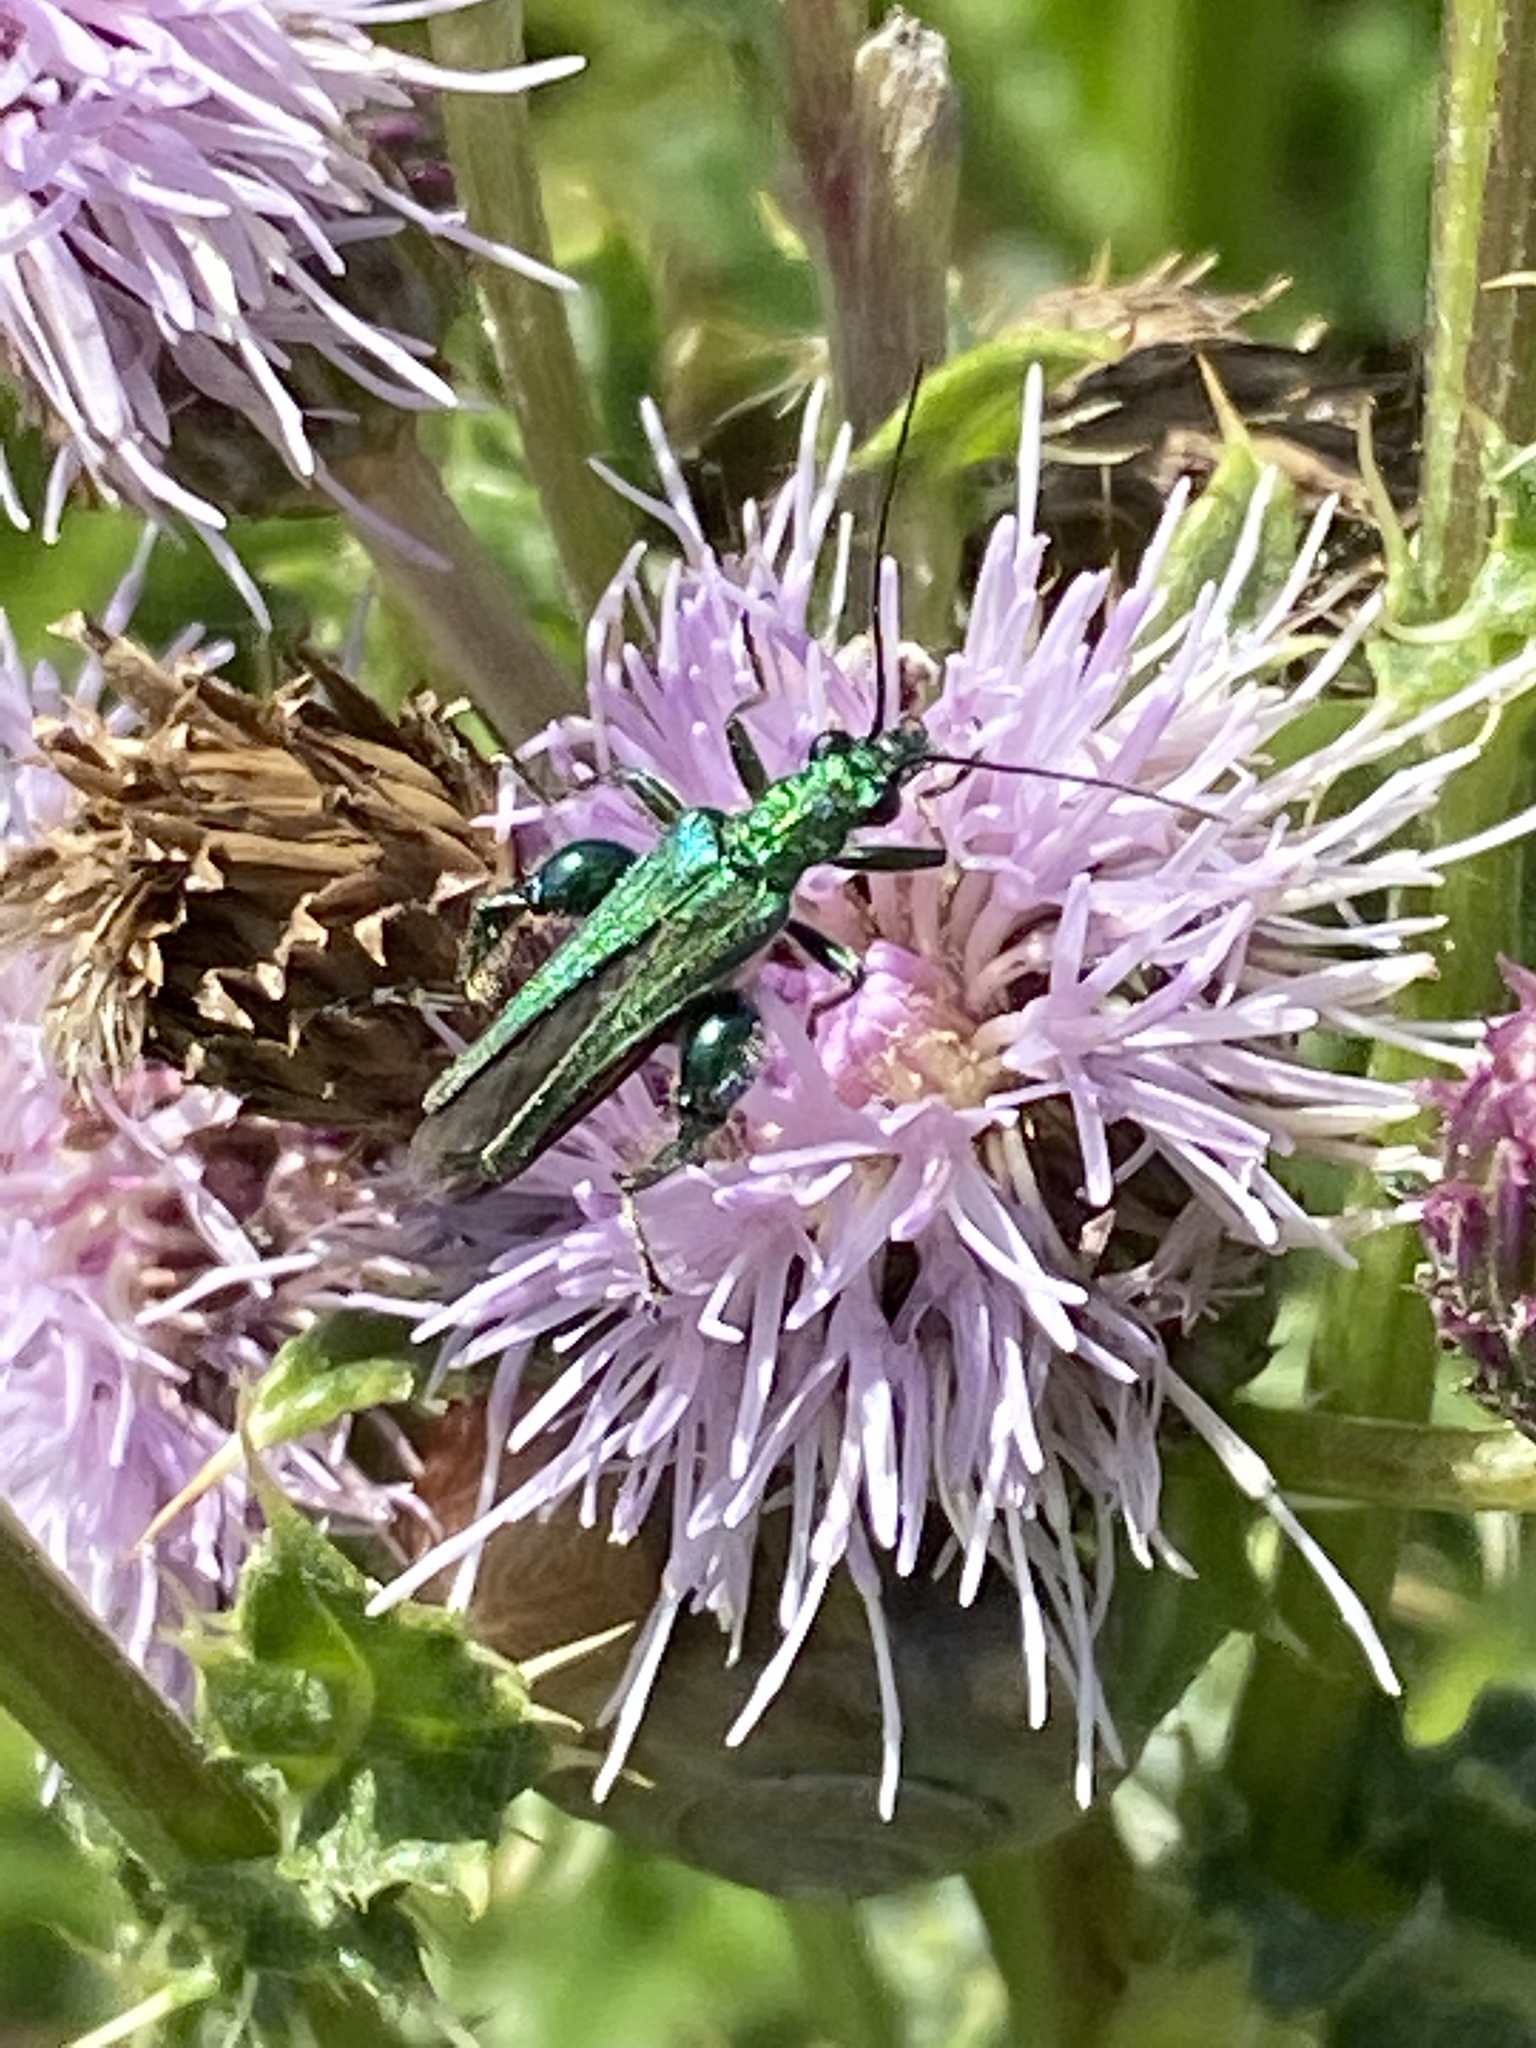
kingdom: Animalia
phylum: Arthropoda
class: Insecta
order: Coleoptera
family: Oedemeridae
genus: Oedemera
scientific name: Oedemera nobilis
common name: Swollen-thighed beetle
